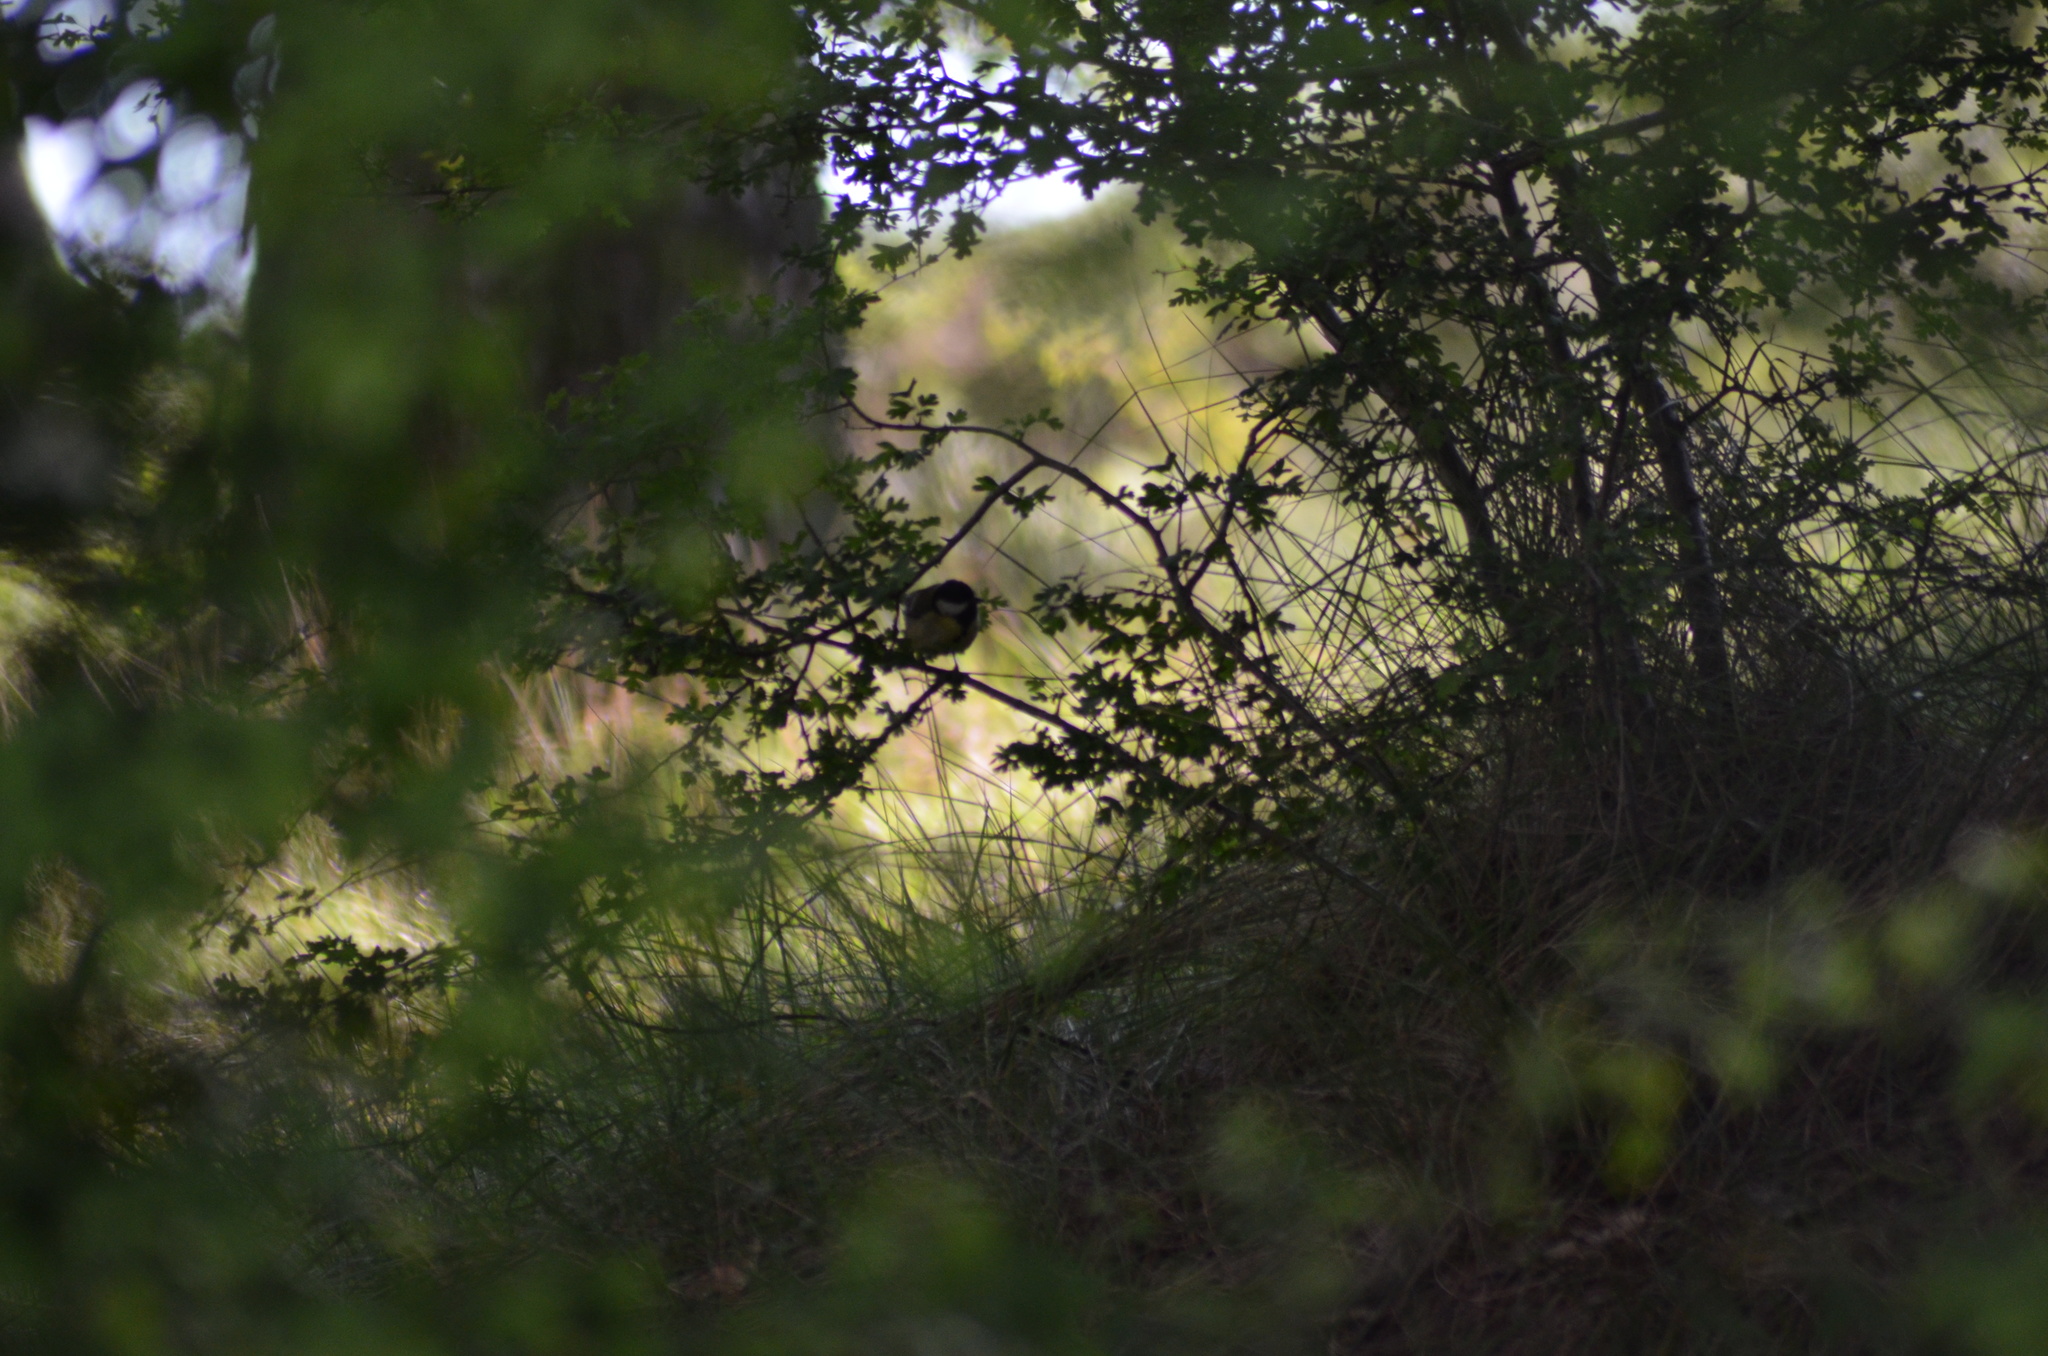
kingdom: Animalia
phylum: Chordata
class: Aves
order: Passeriformes
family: Paridae
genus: Parus
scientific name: Parus major
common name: Great tit
